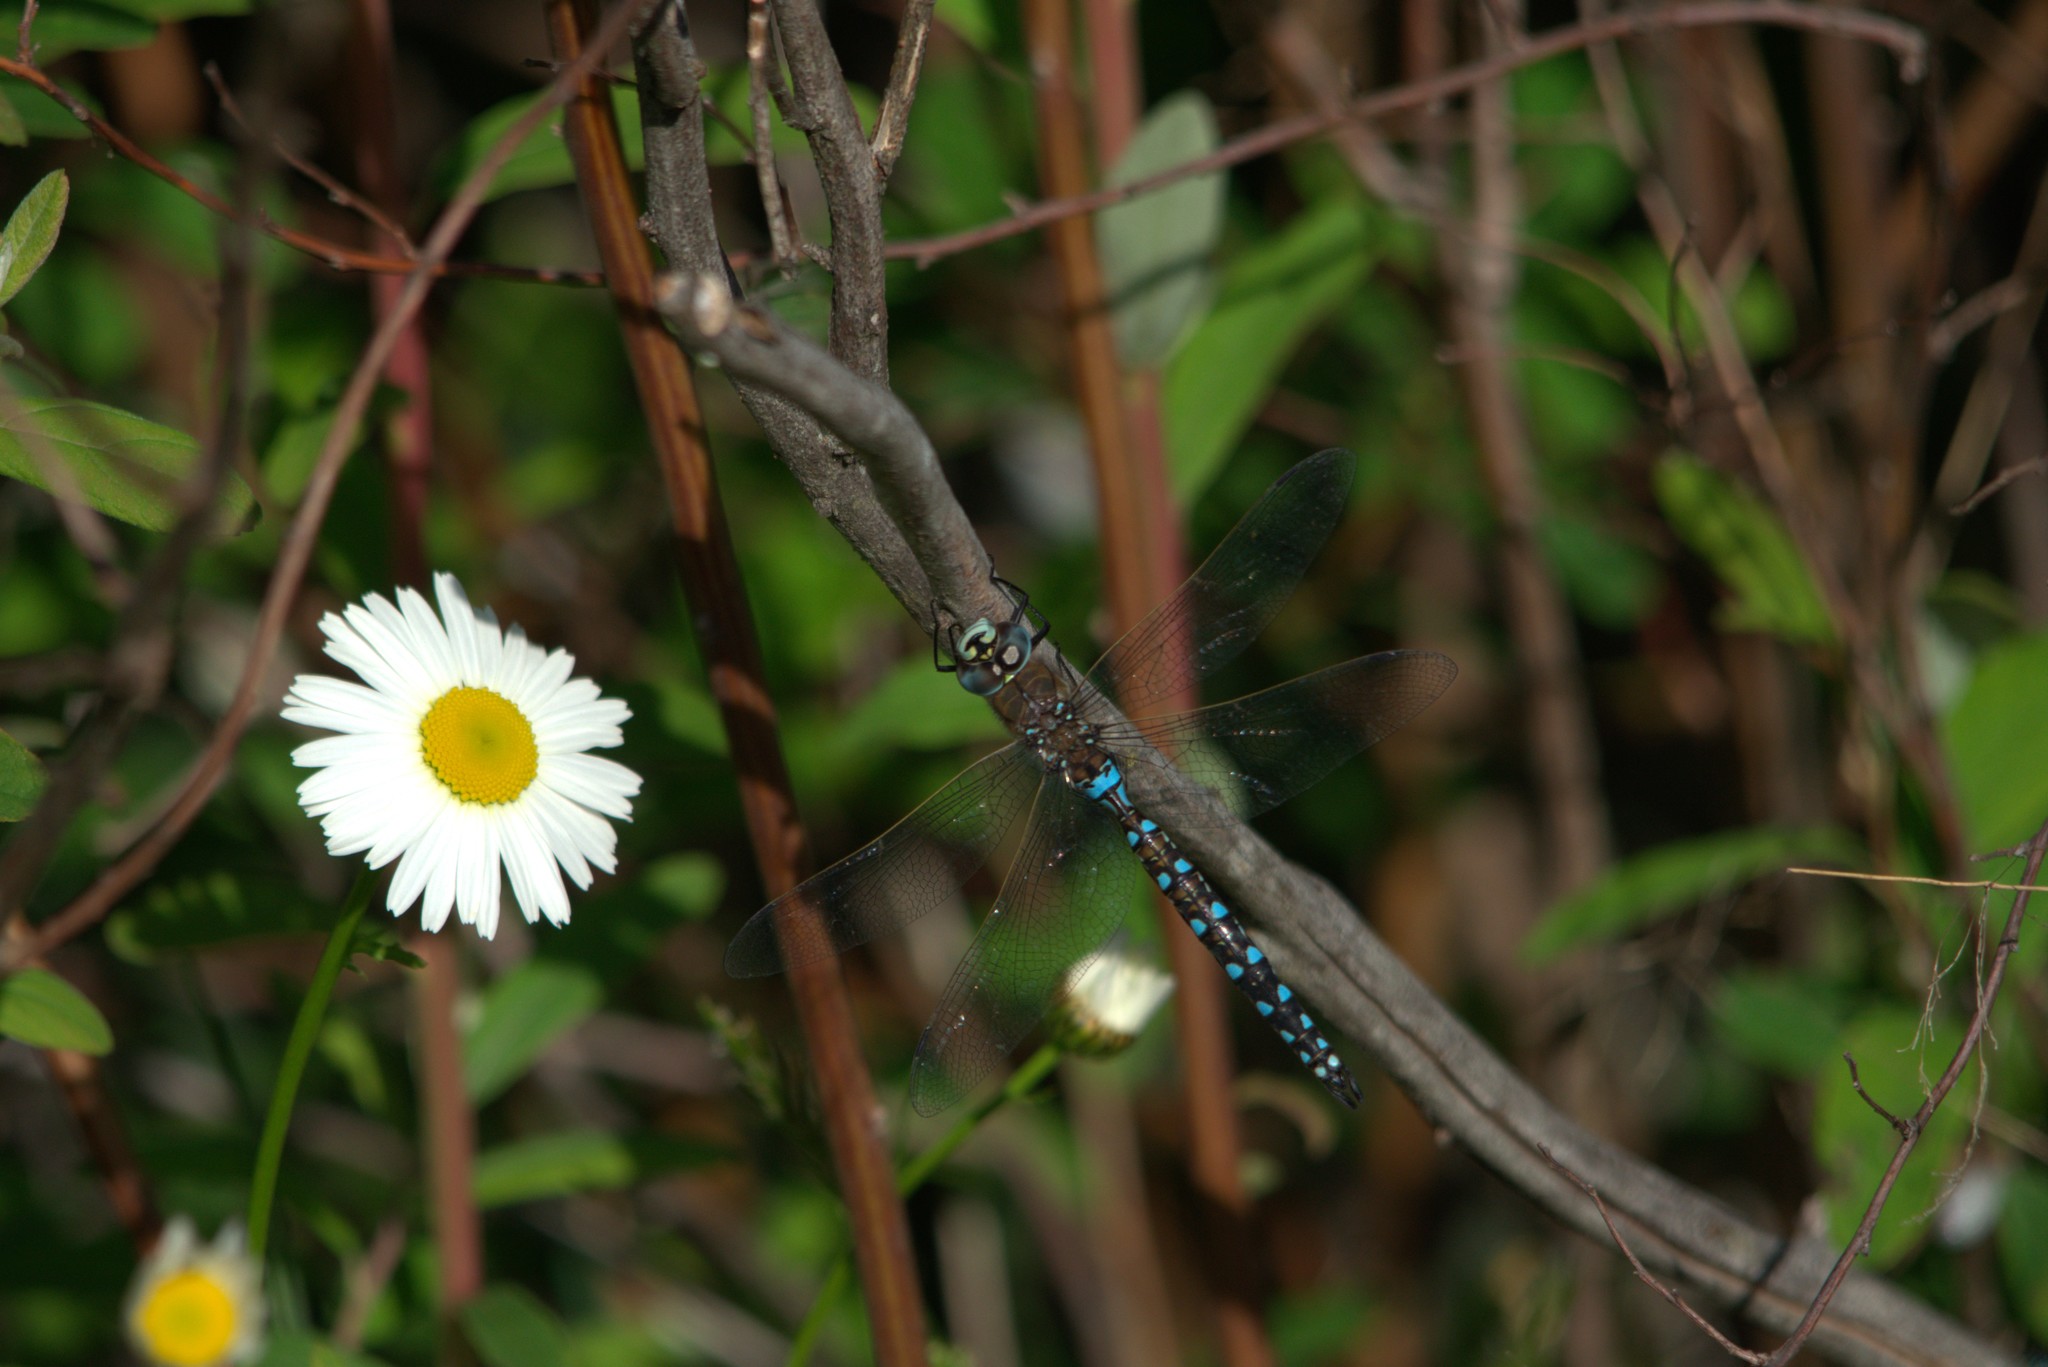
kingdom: Animalia
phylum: Arthropoda
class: Insecta
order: Odonata
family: Aeshnidae
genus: Rhionaeschna
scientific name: Rhionaeschna californica
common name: California darner
